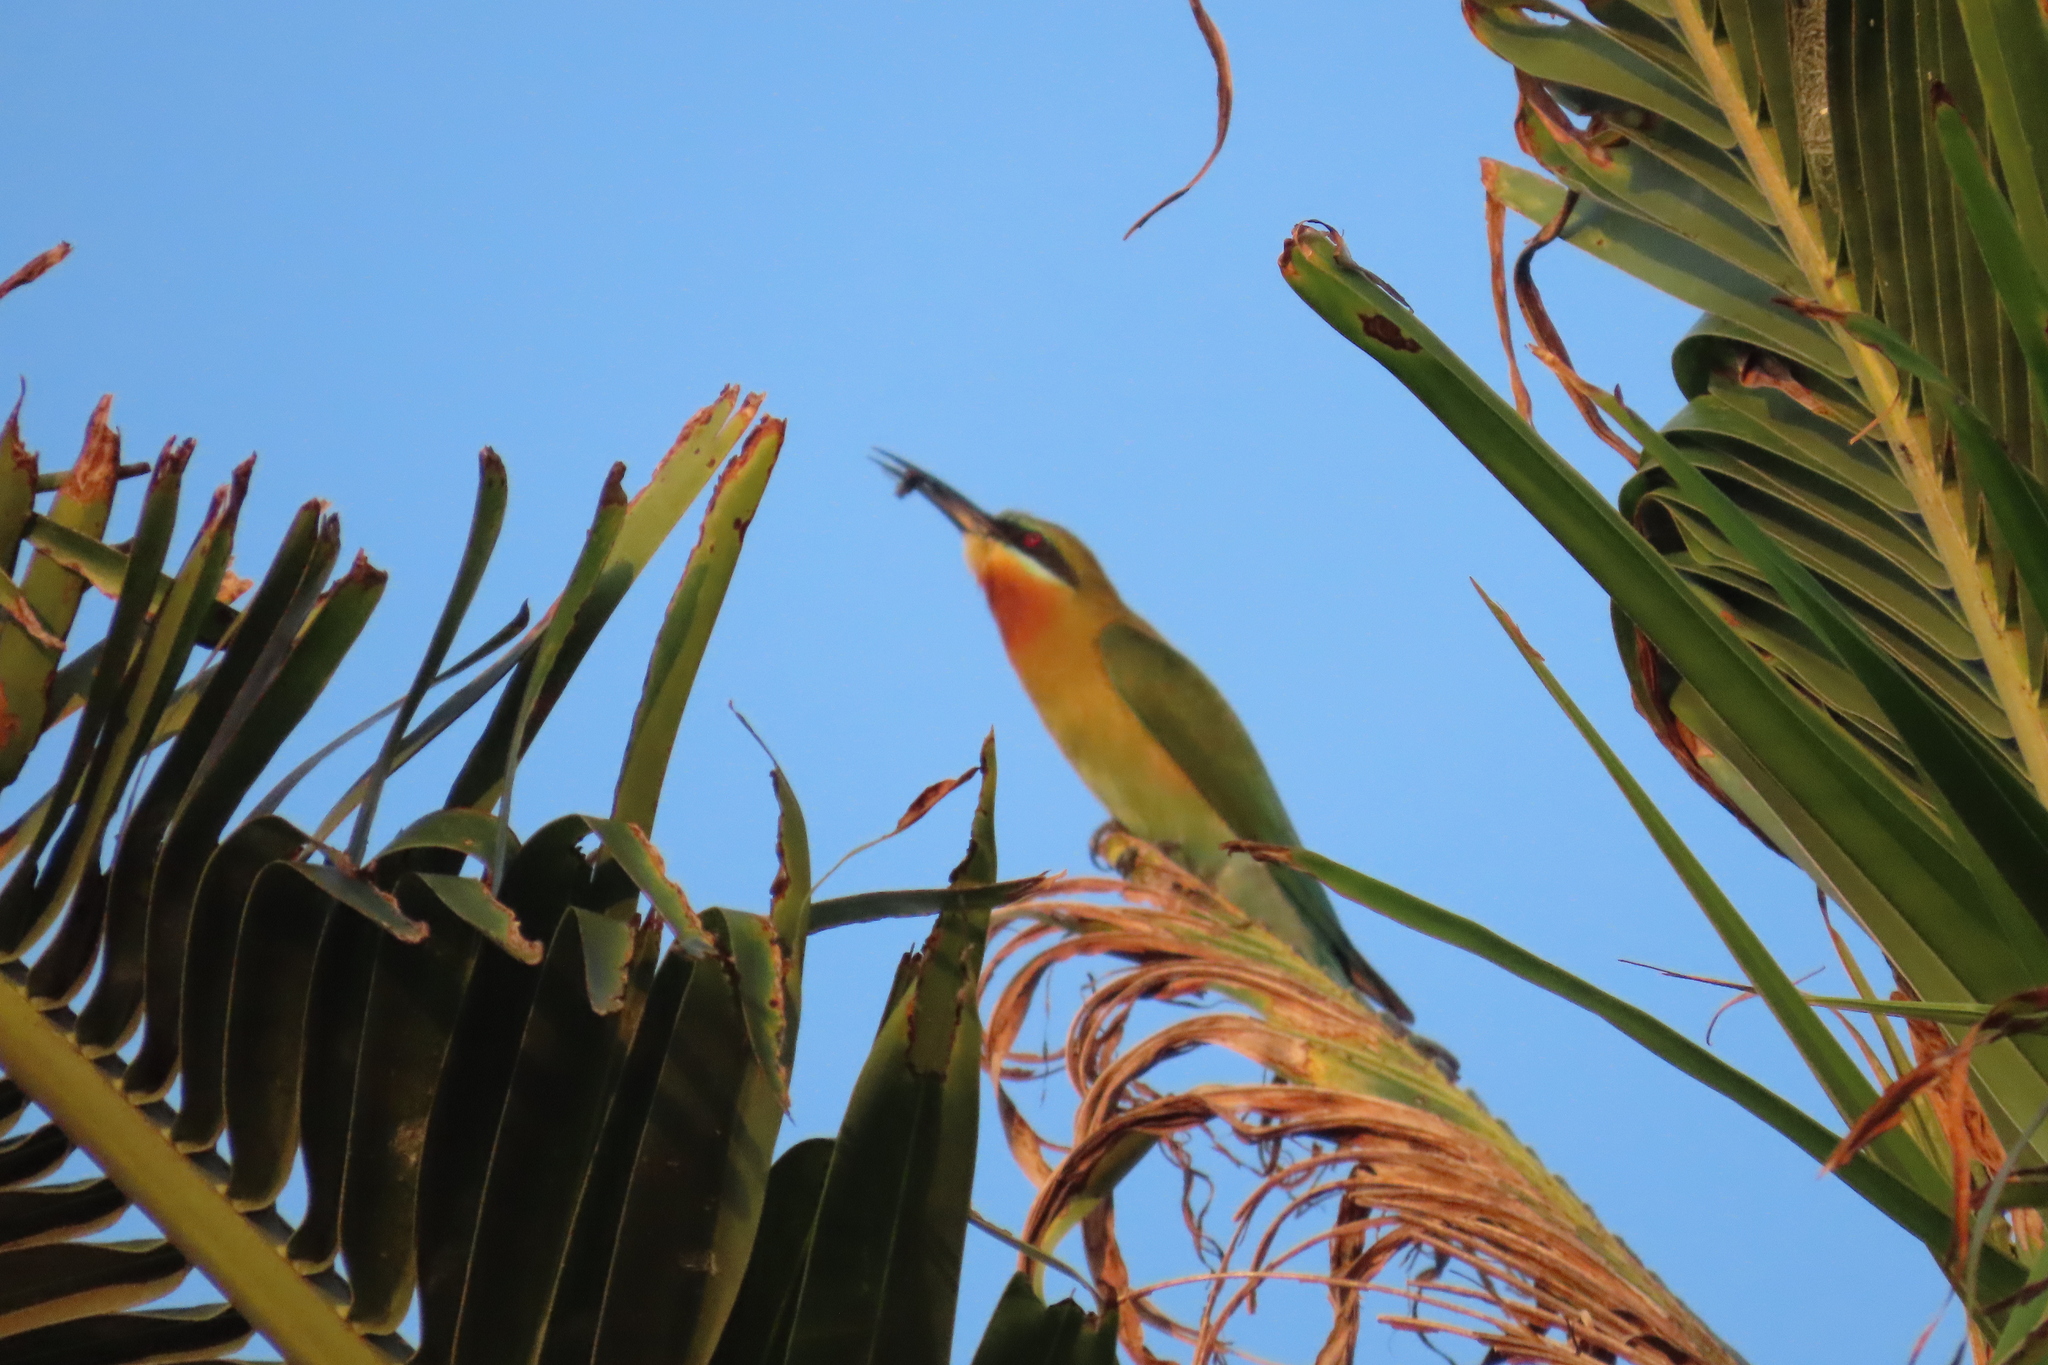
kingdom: Animalia
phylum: Chordata
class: Aves
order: Coraciiformes
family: Meropidae
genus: Merops
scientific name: Merops philippinus
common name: Blue-tailed bee-eater
